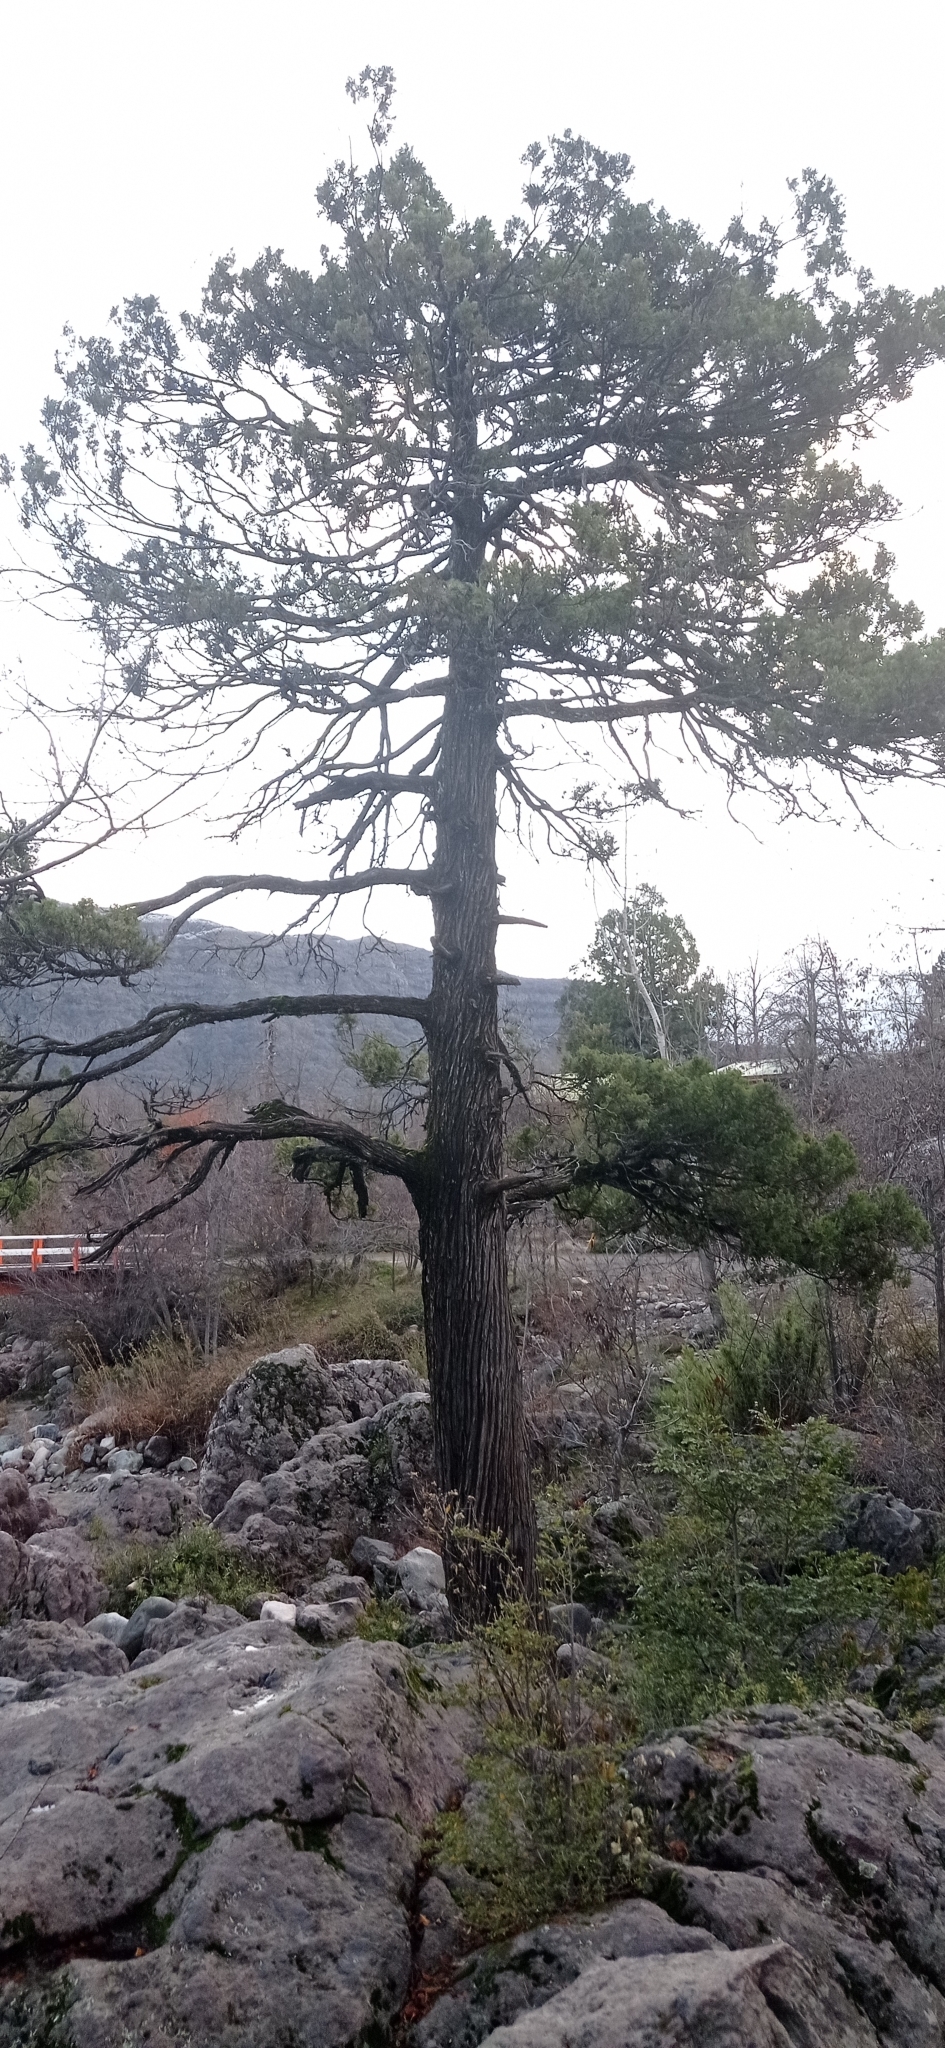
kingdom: Plantae
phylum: Tracheophyta
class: Pinopsida
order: Pinales
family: Cupressaceae
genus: Austrocedrus
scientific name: Austrocedrus chilensis
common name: Chilean incense-cedar
